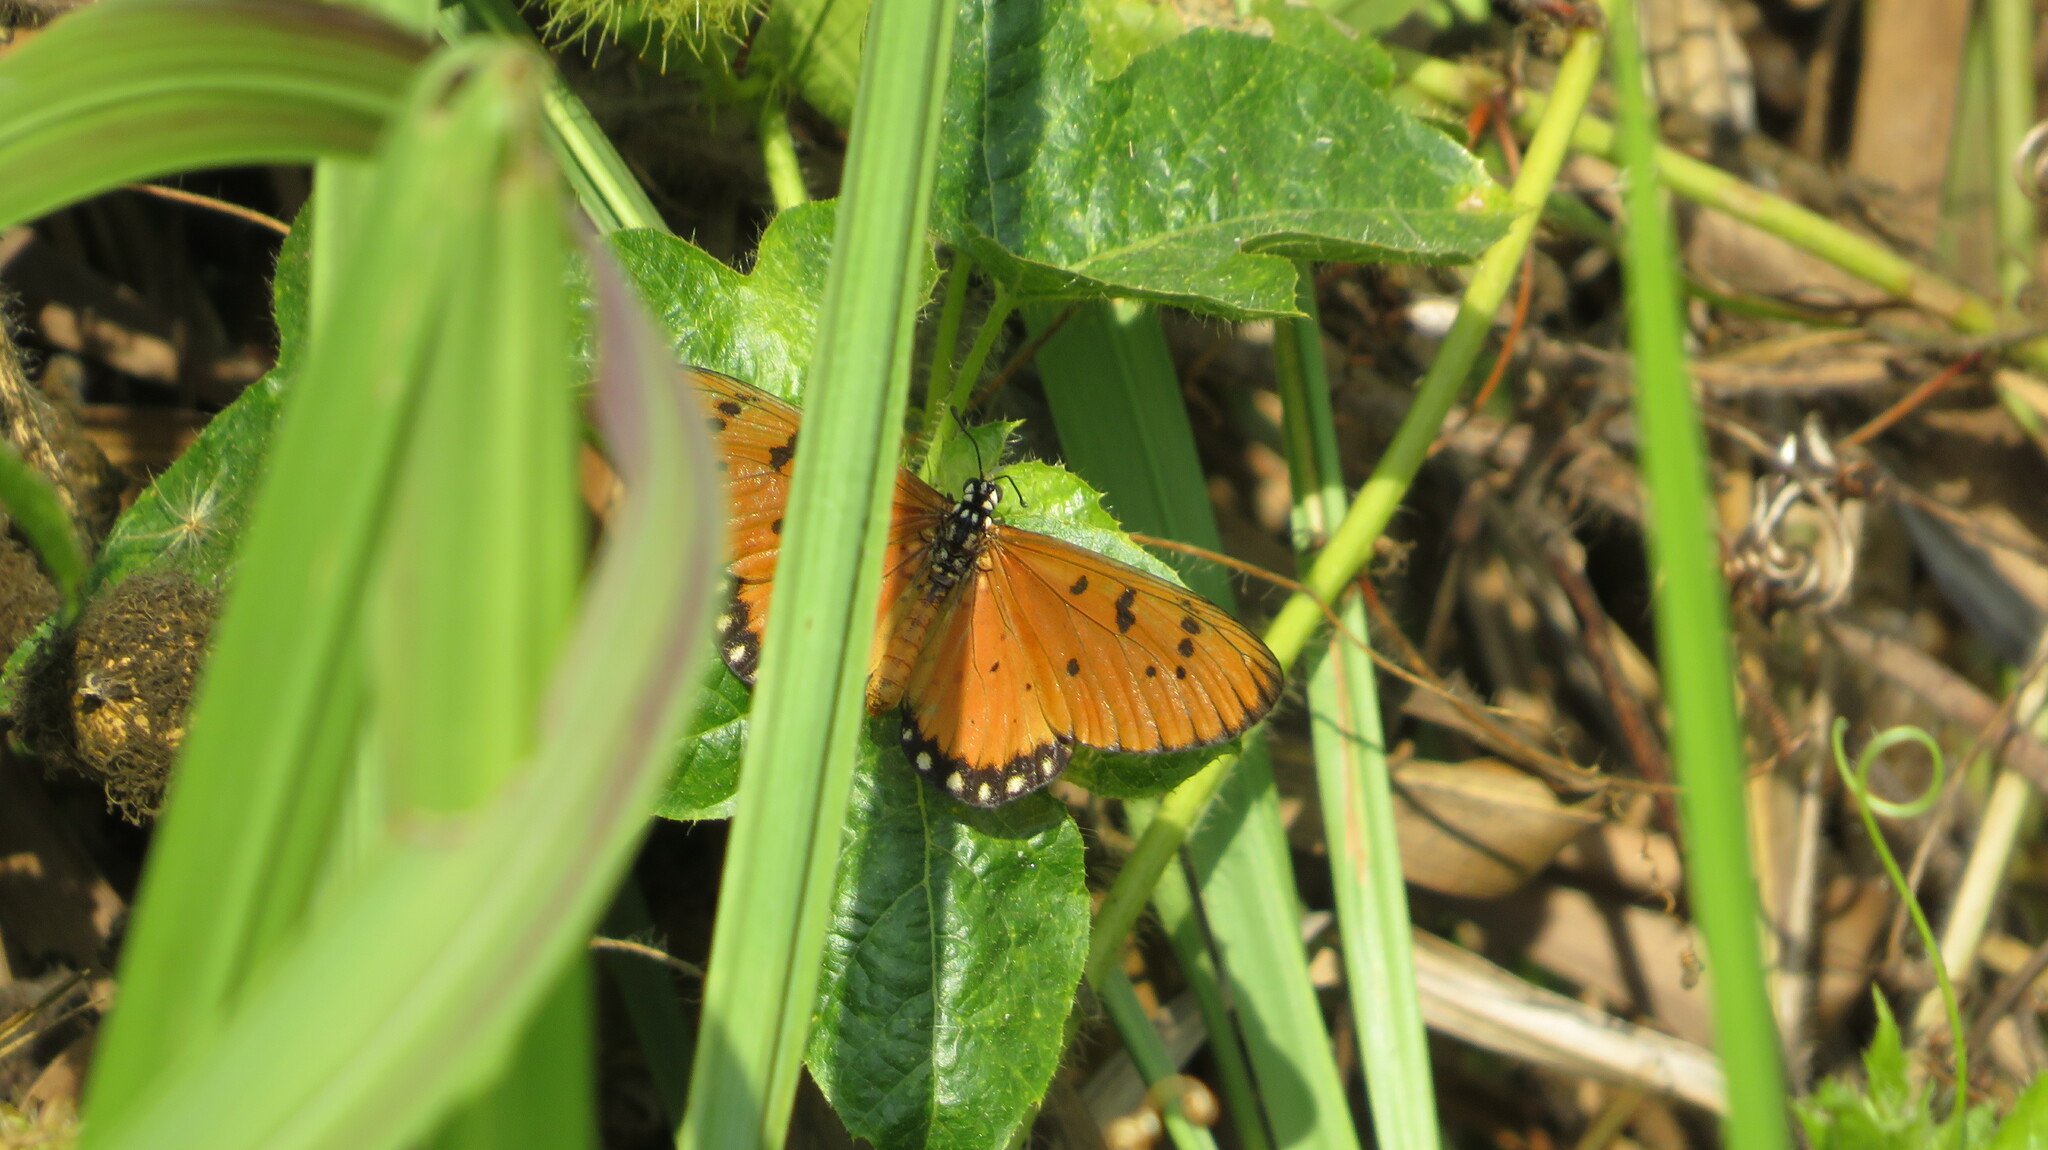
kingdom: Animalia
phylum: Arthropoda
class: Insecta
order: Lepidoptera
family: Nymphalidae
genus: Acraea
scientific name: Acraea terpsicore
